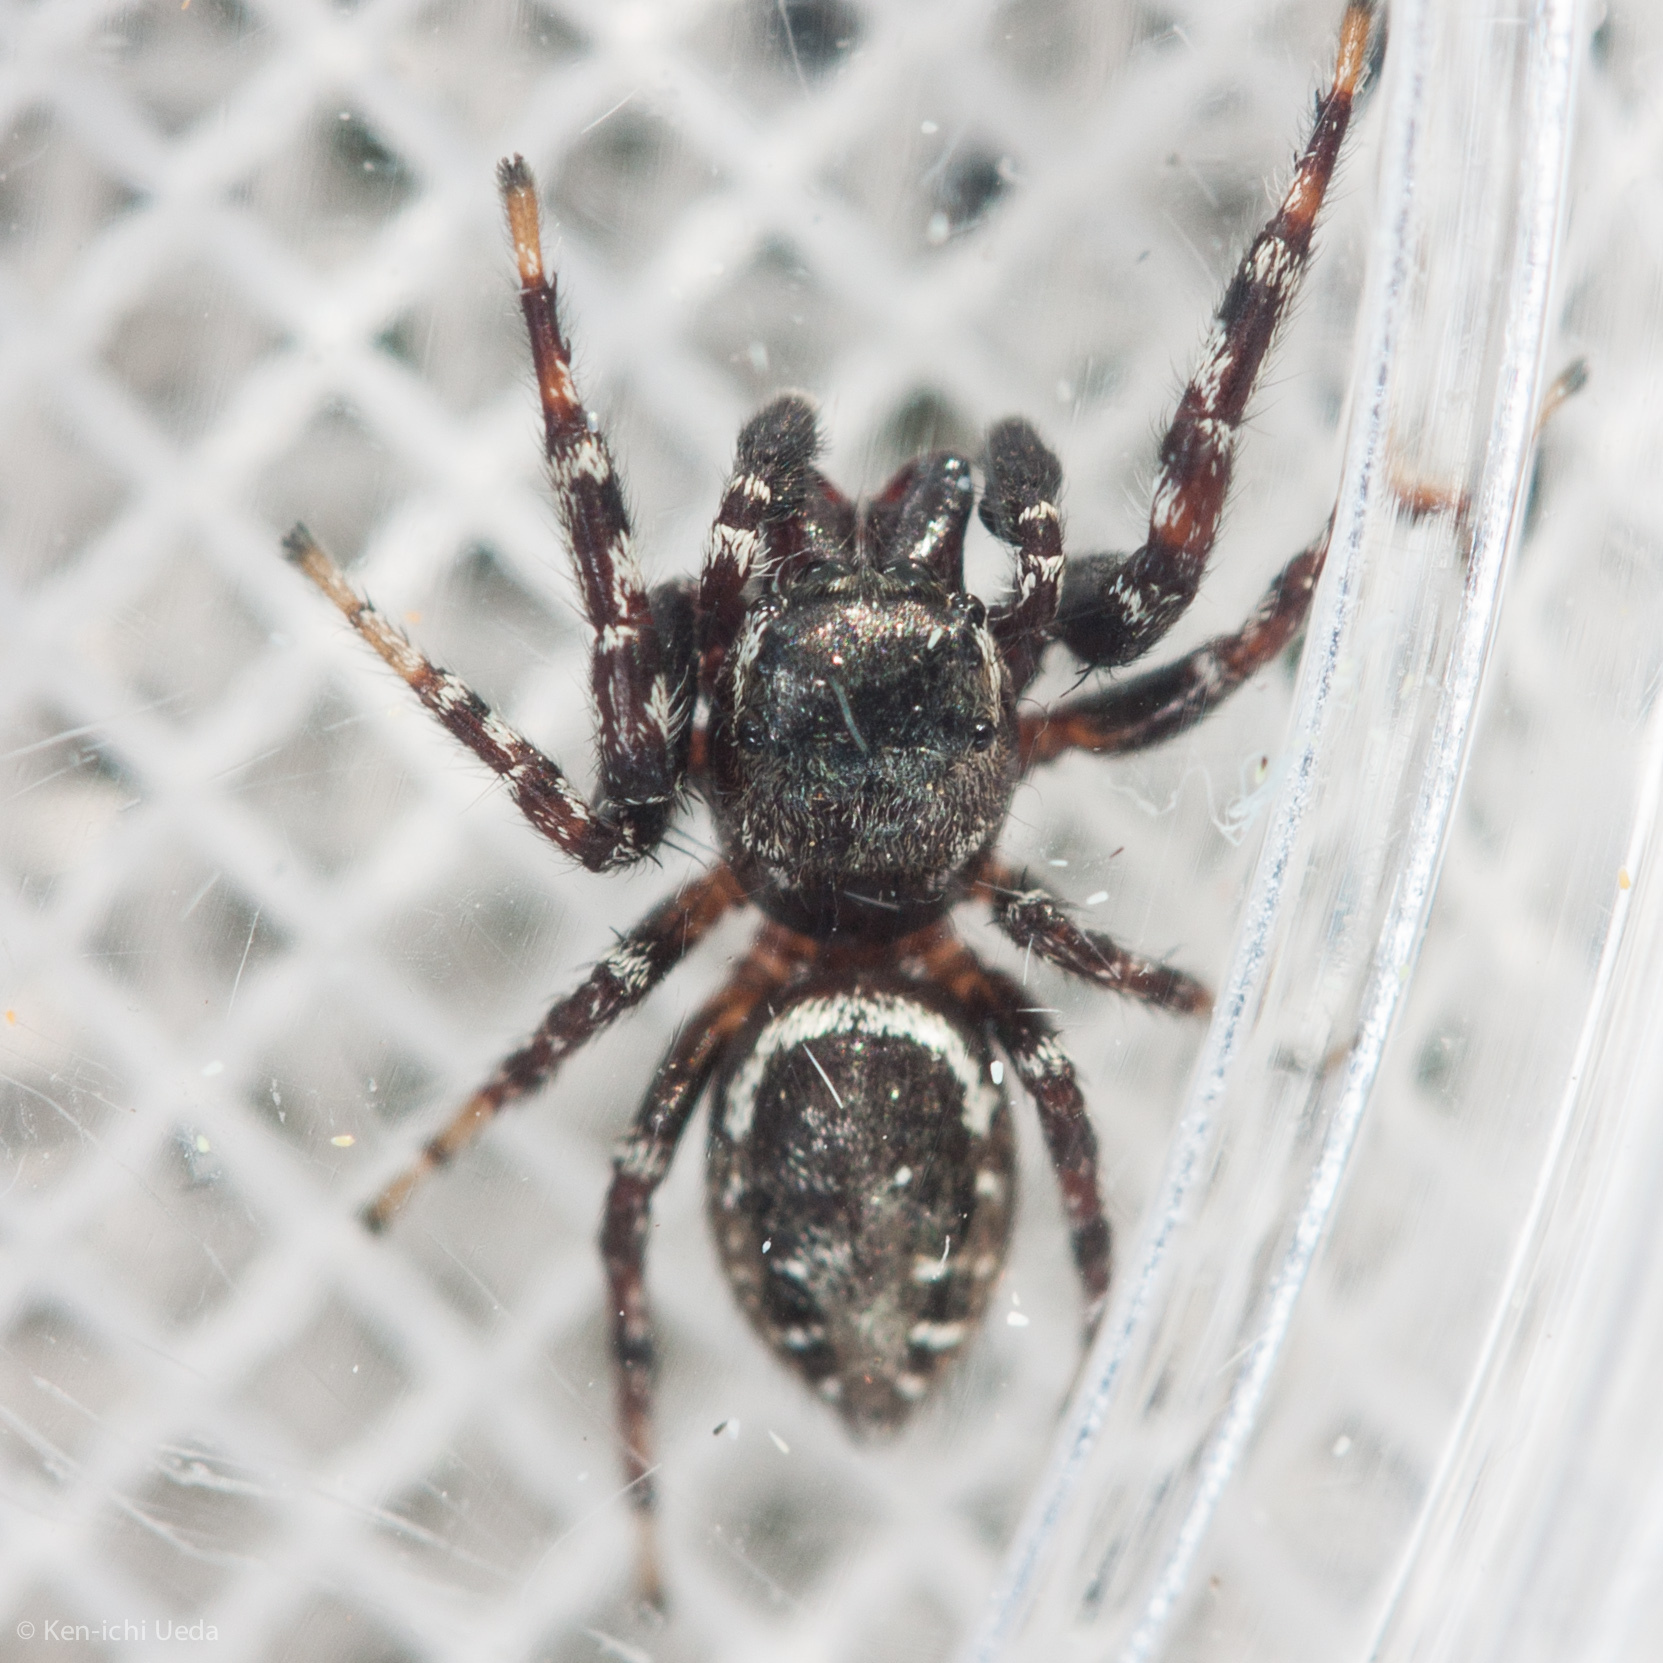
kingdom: Animalia
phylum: Arthropoda
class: Arachnida
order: Araneae
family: Salticidae
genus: Pelegrina
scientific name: Pelegrina aeneola
